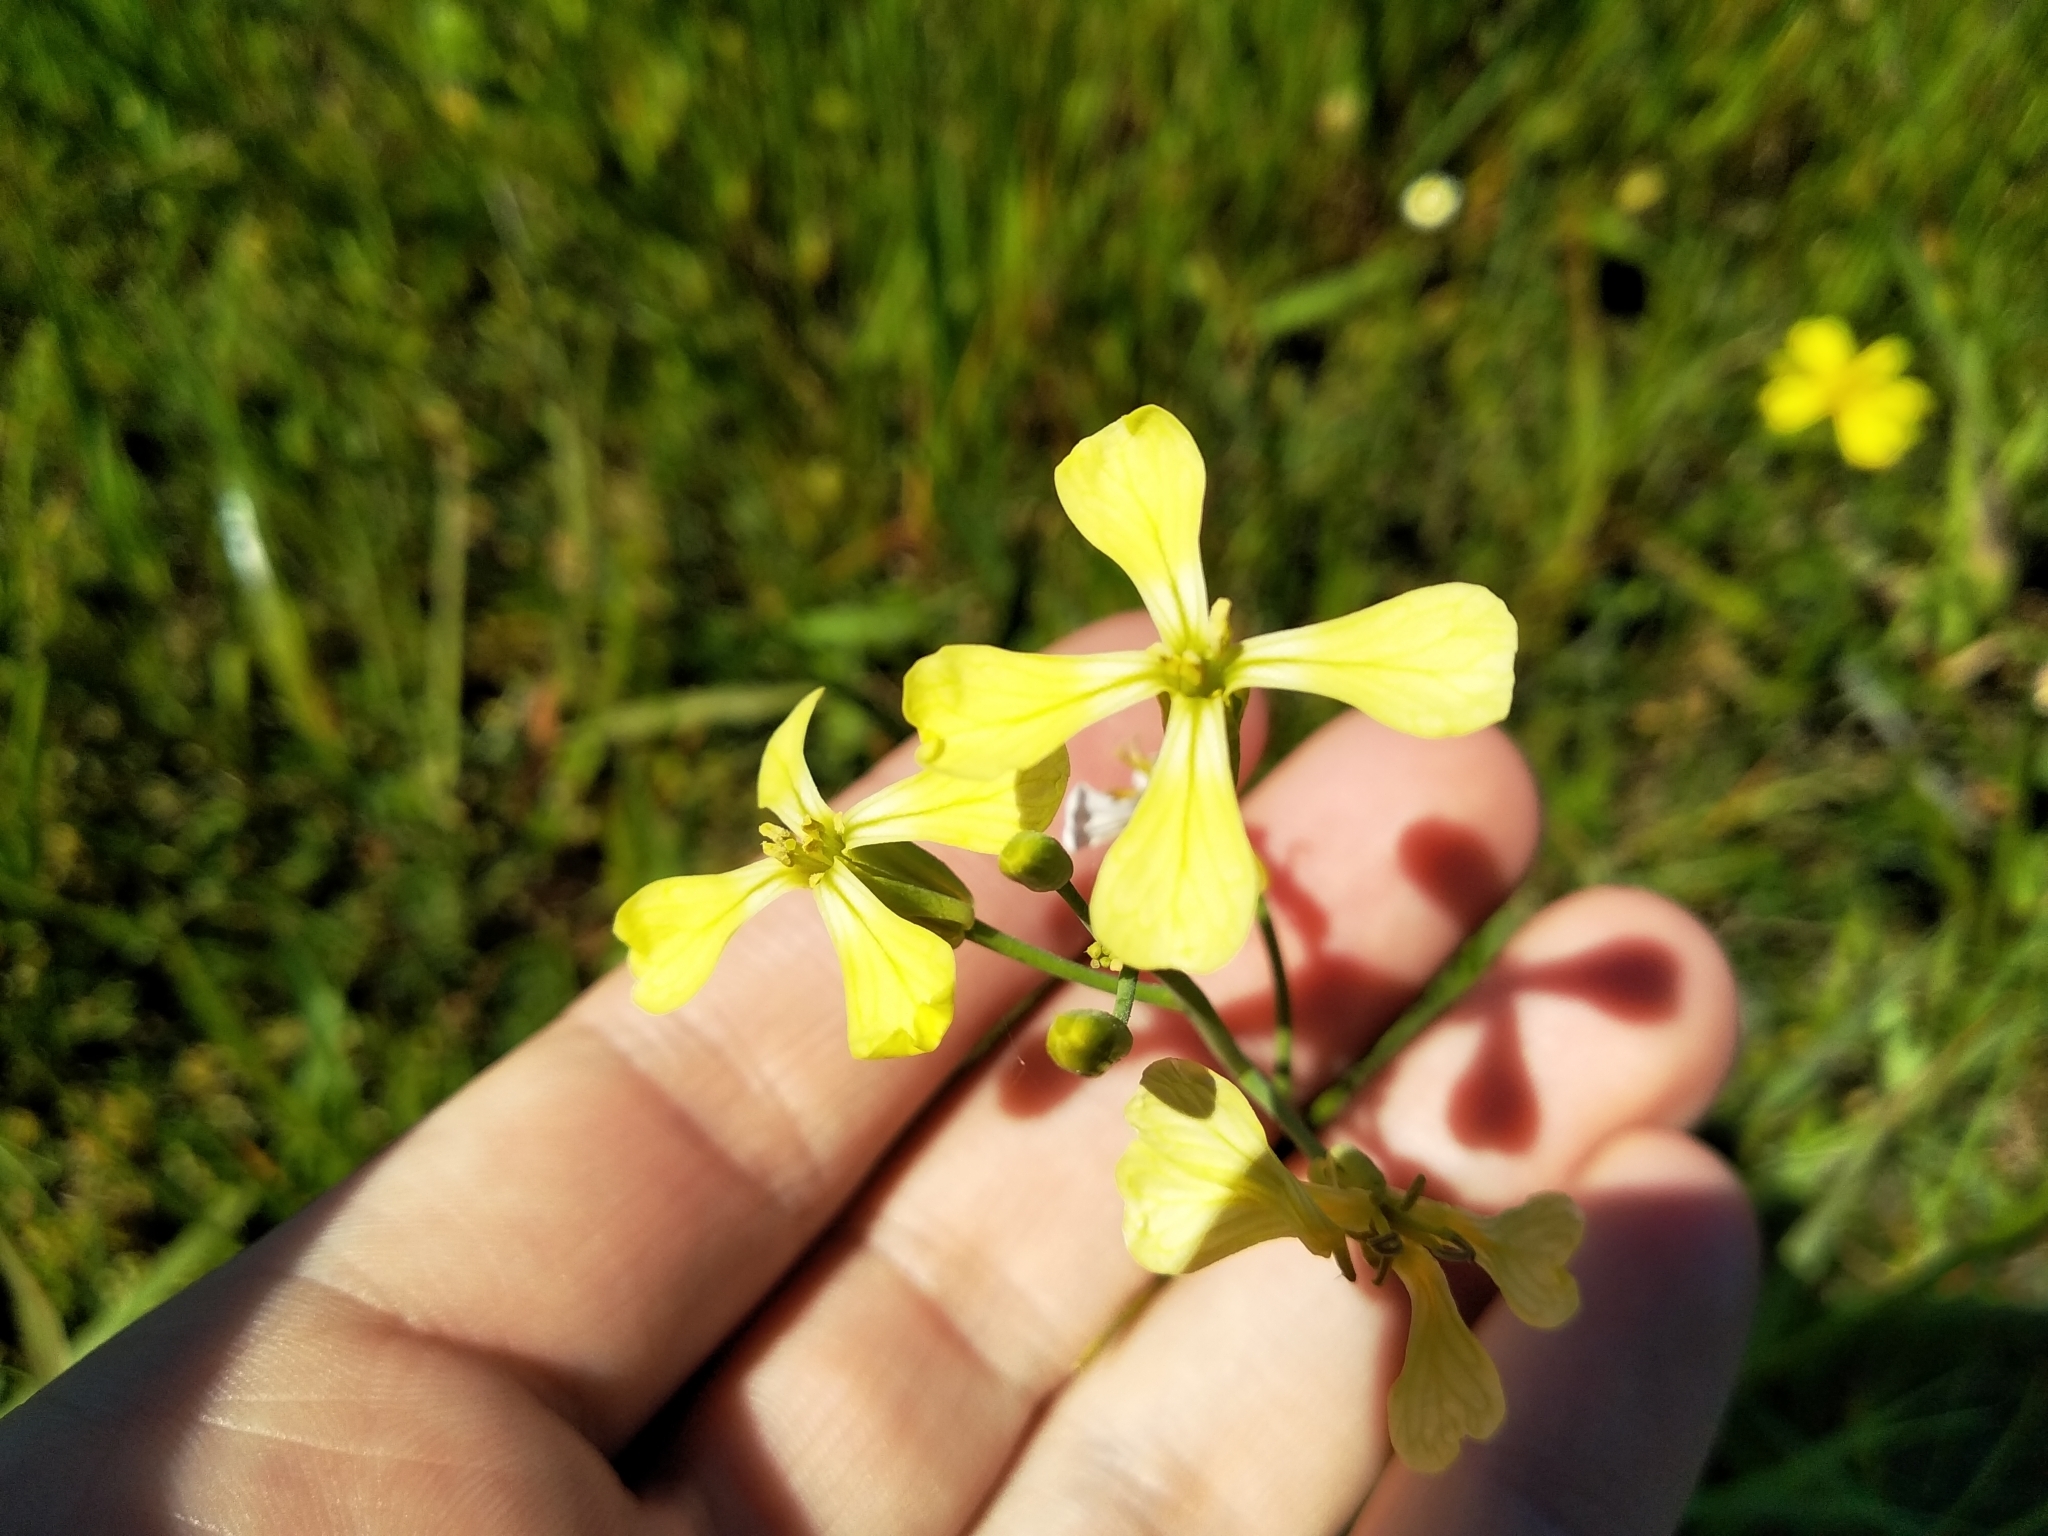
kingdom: Plantae
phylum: Tracheophyta
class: Magnoliopsida
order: Brassicales
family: Brassicaceae
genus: Raphanus
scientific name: Raphanus raphanistrum
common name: Wild radish
